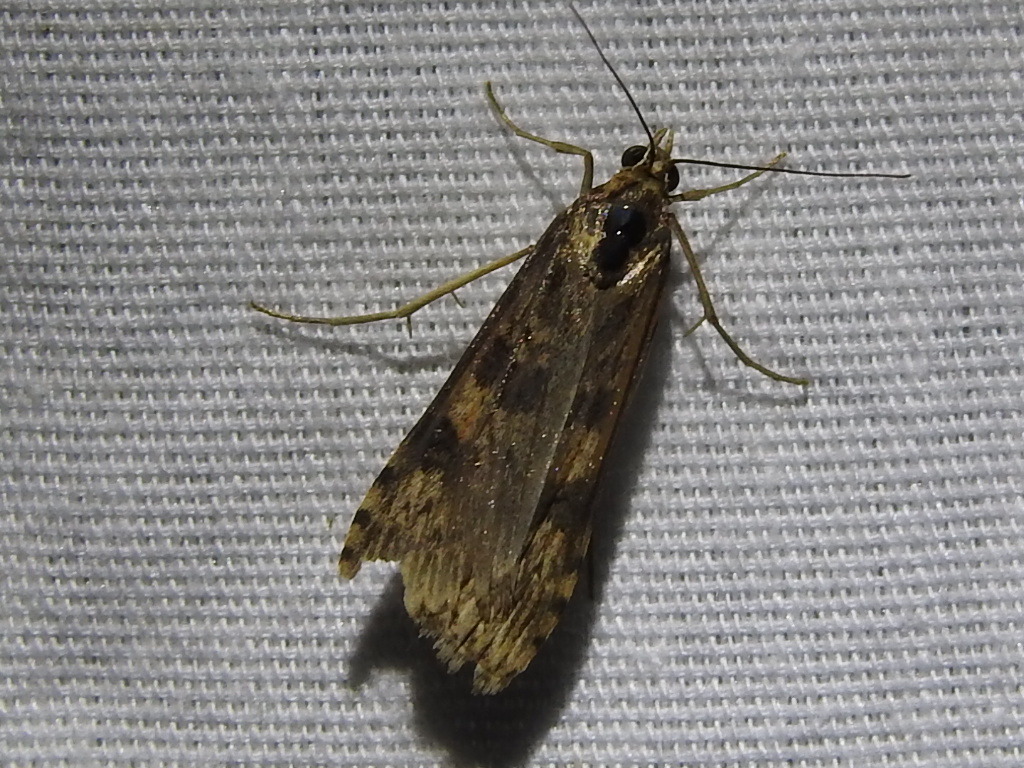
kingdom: Animalia
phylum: Arthropoda
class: Insecta
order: Lepidoptera
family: Crambidae
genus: Nomophila
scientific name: Nomophila nearctica
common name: American rush veneer
